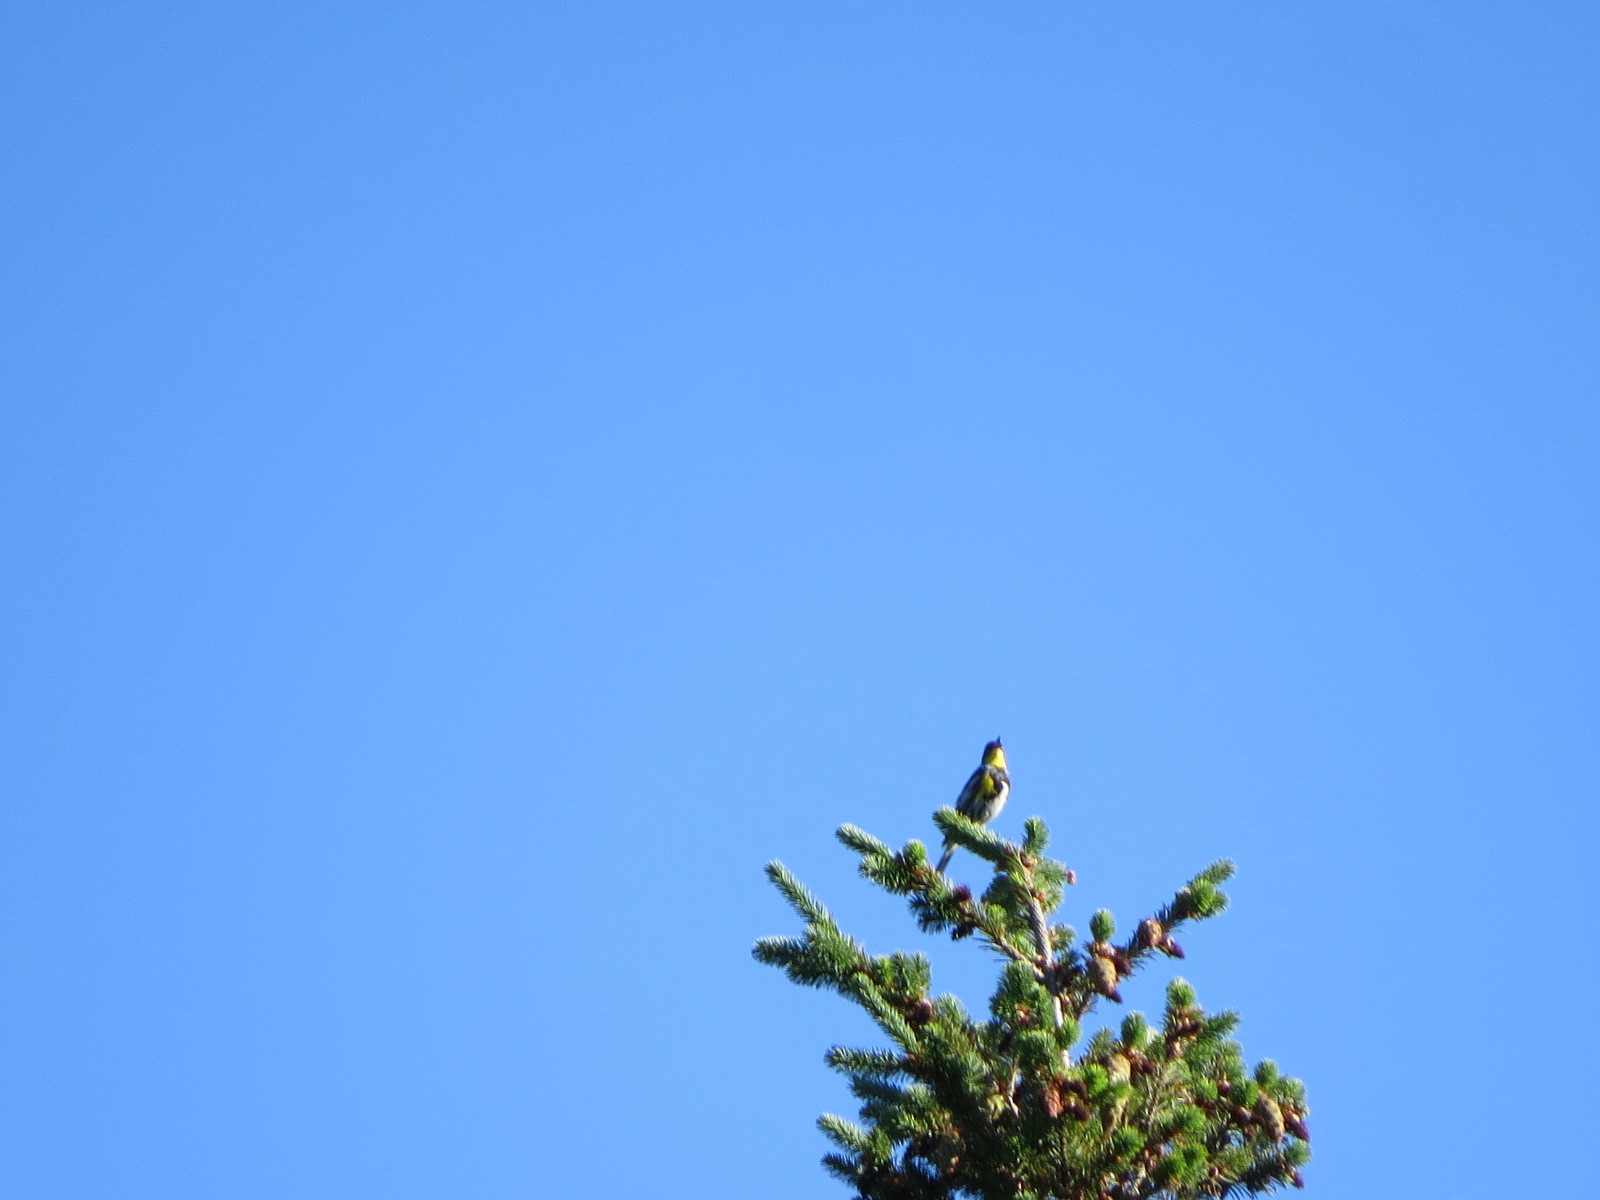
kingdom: Animalia
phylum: Chordata
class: Aves
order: Passeriformes
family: Parulidae
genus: Setophaga
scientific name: Setophaga auduboni
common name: Audubon's warbler
